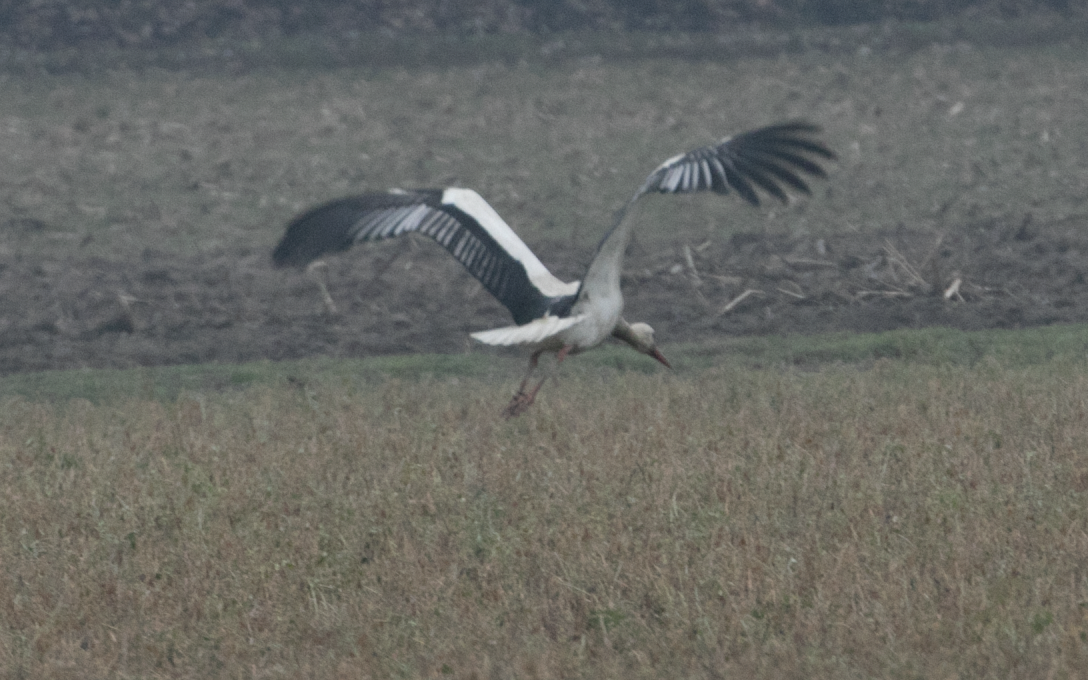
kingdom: Animalia
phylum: Chordata
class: Aves
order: Ciconiiformes
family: Ciconiidae
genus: Ciconia
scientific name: Ciconia ciconia
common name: White stork
